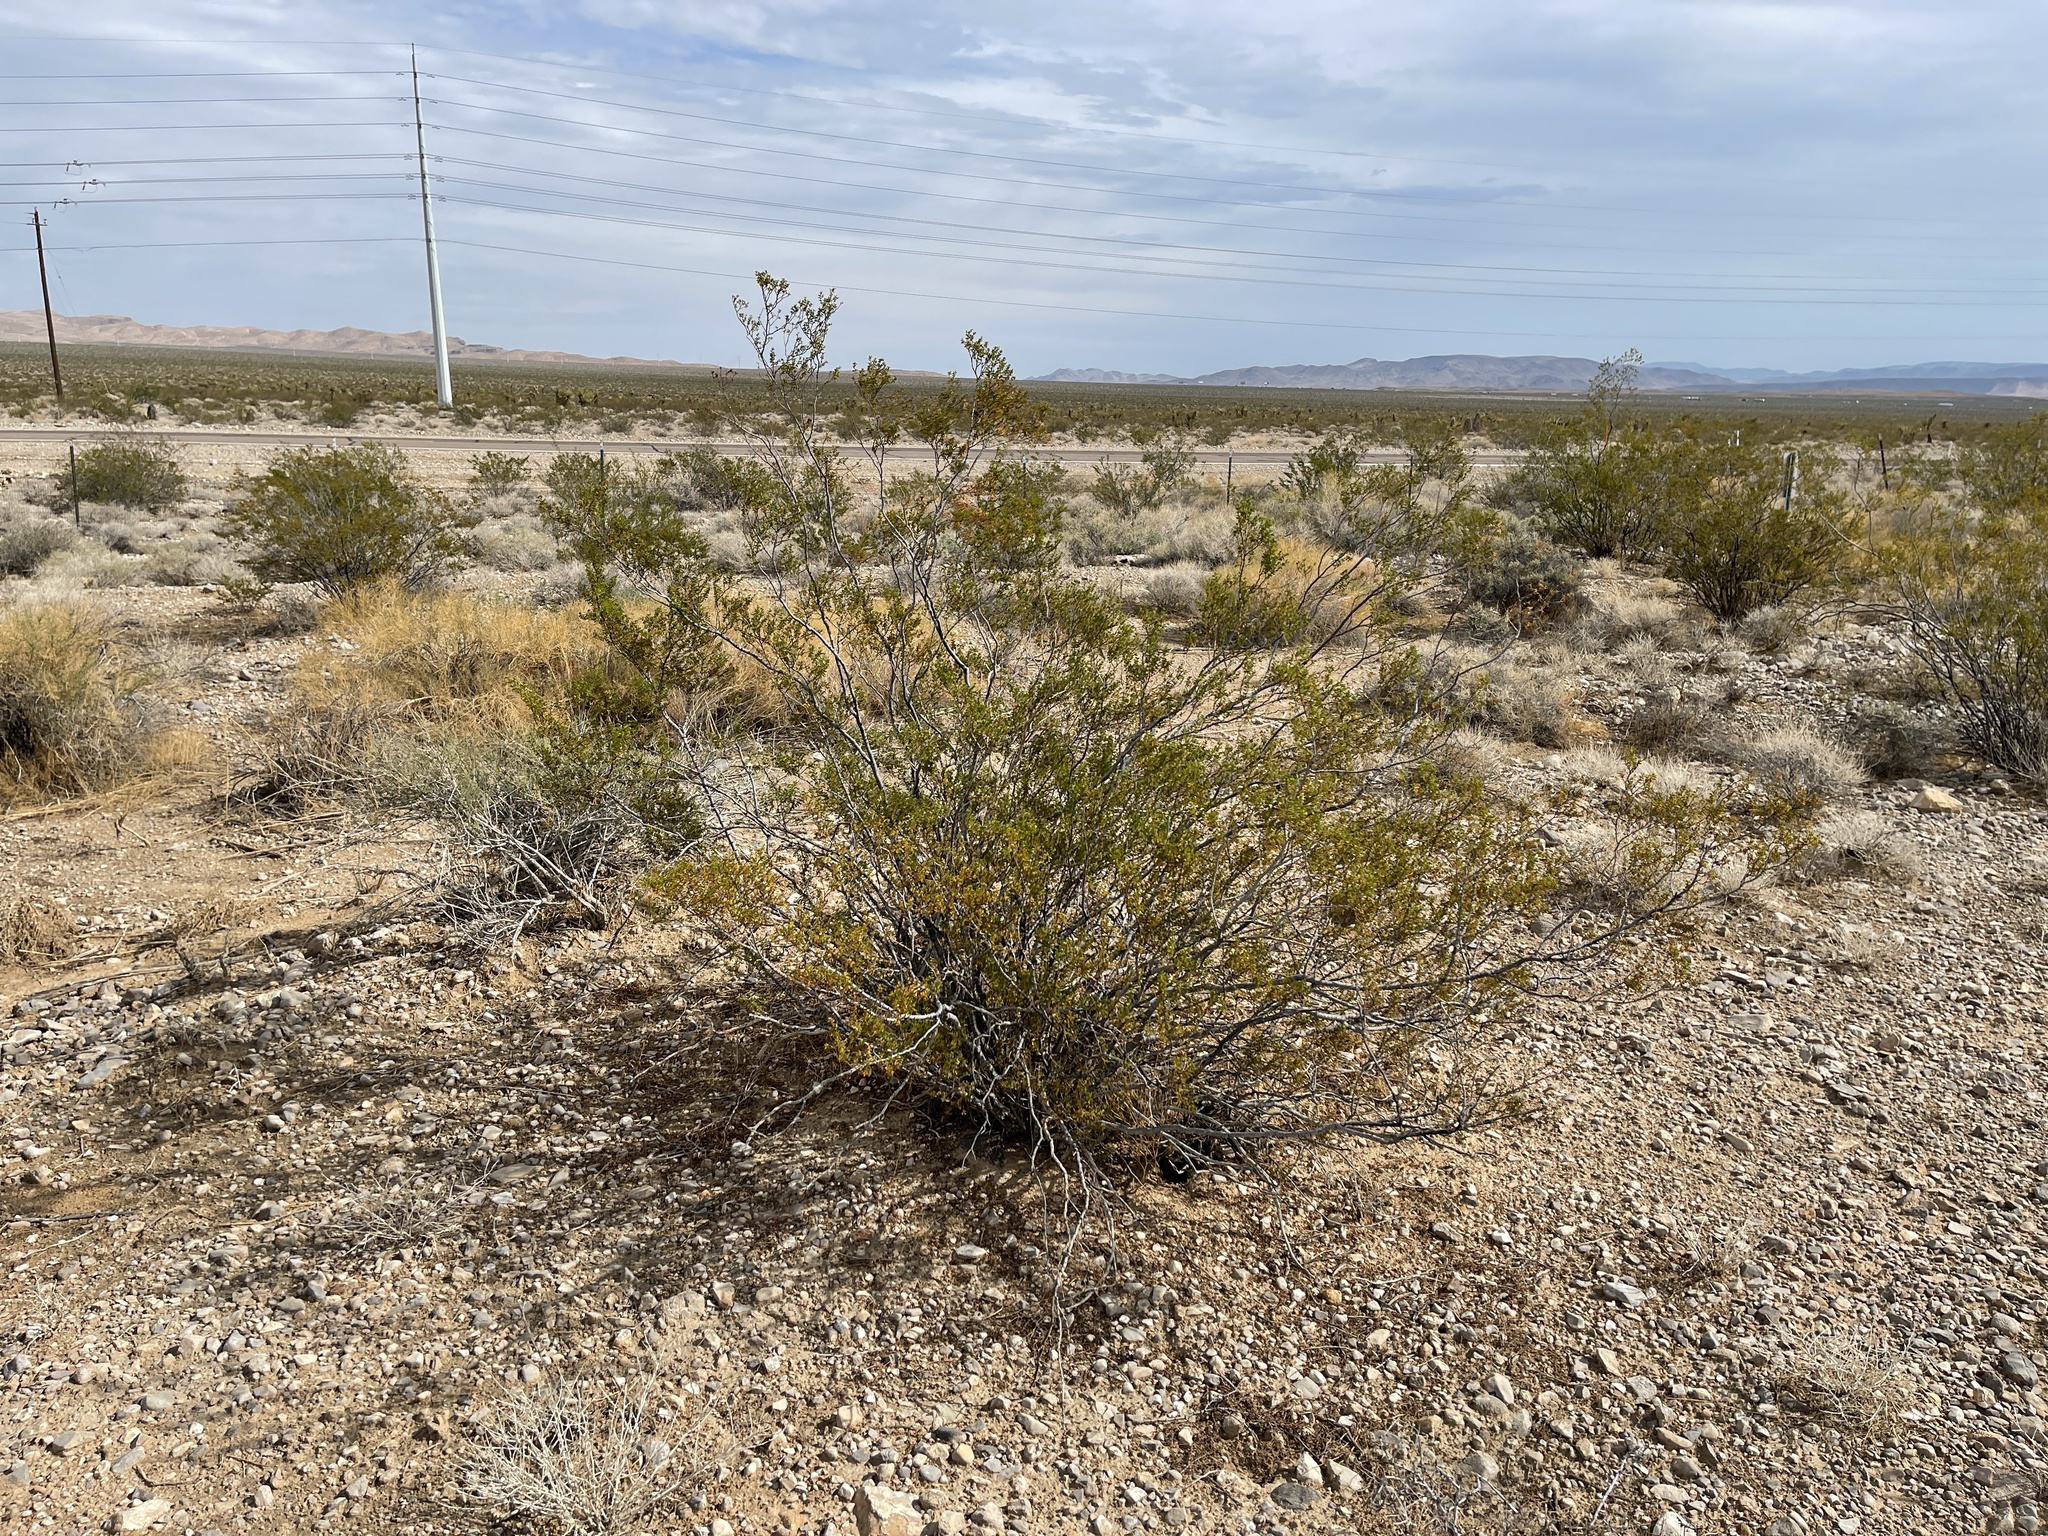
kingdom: Plantae
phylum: Tracheophyta
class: Magnoliopsida
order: Zygophyllales
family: Zygophyllaceae
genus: Larrea
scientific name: Larrea tridentata
